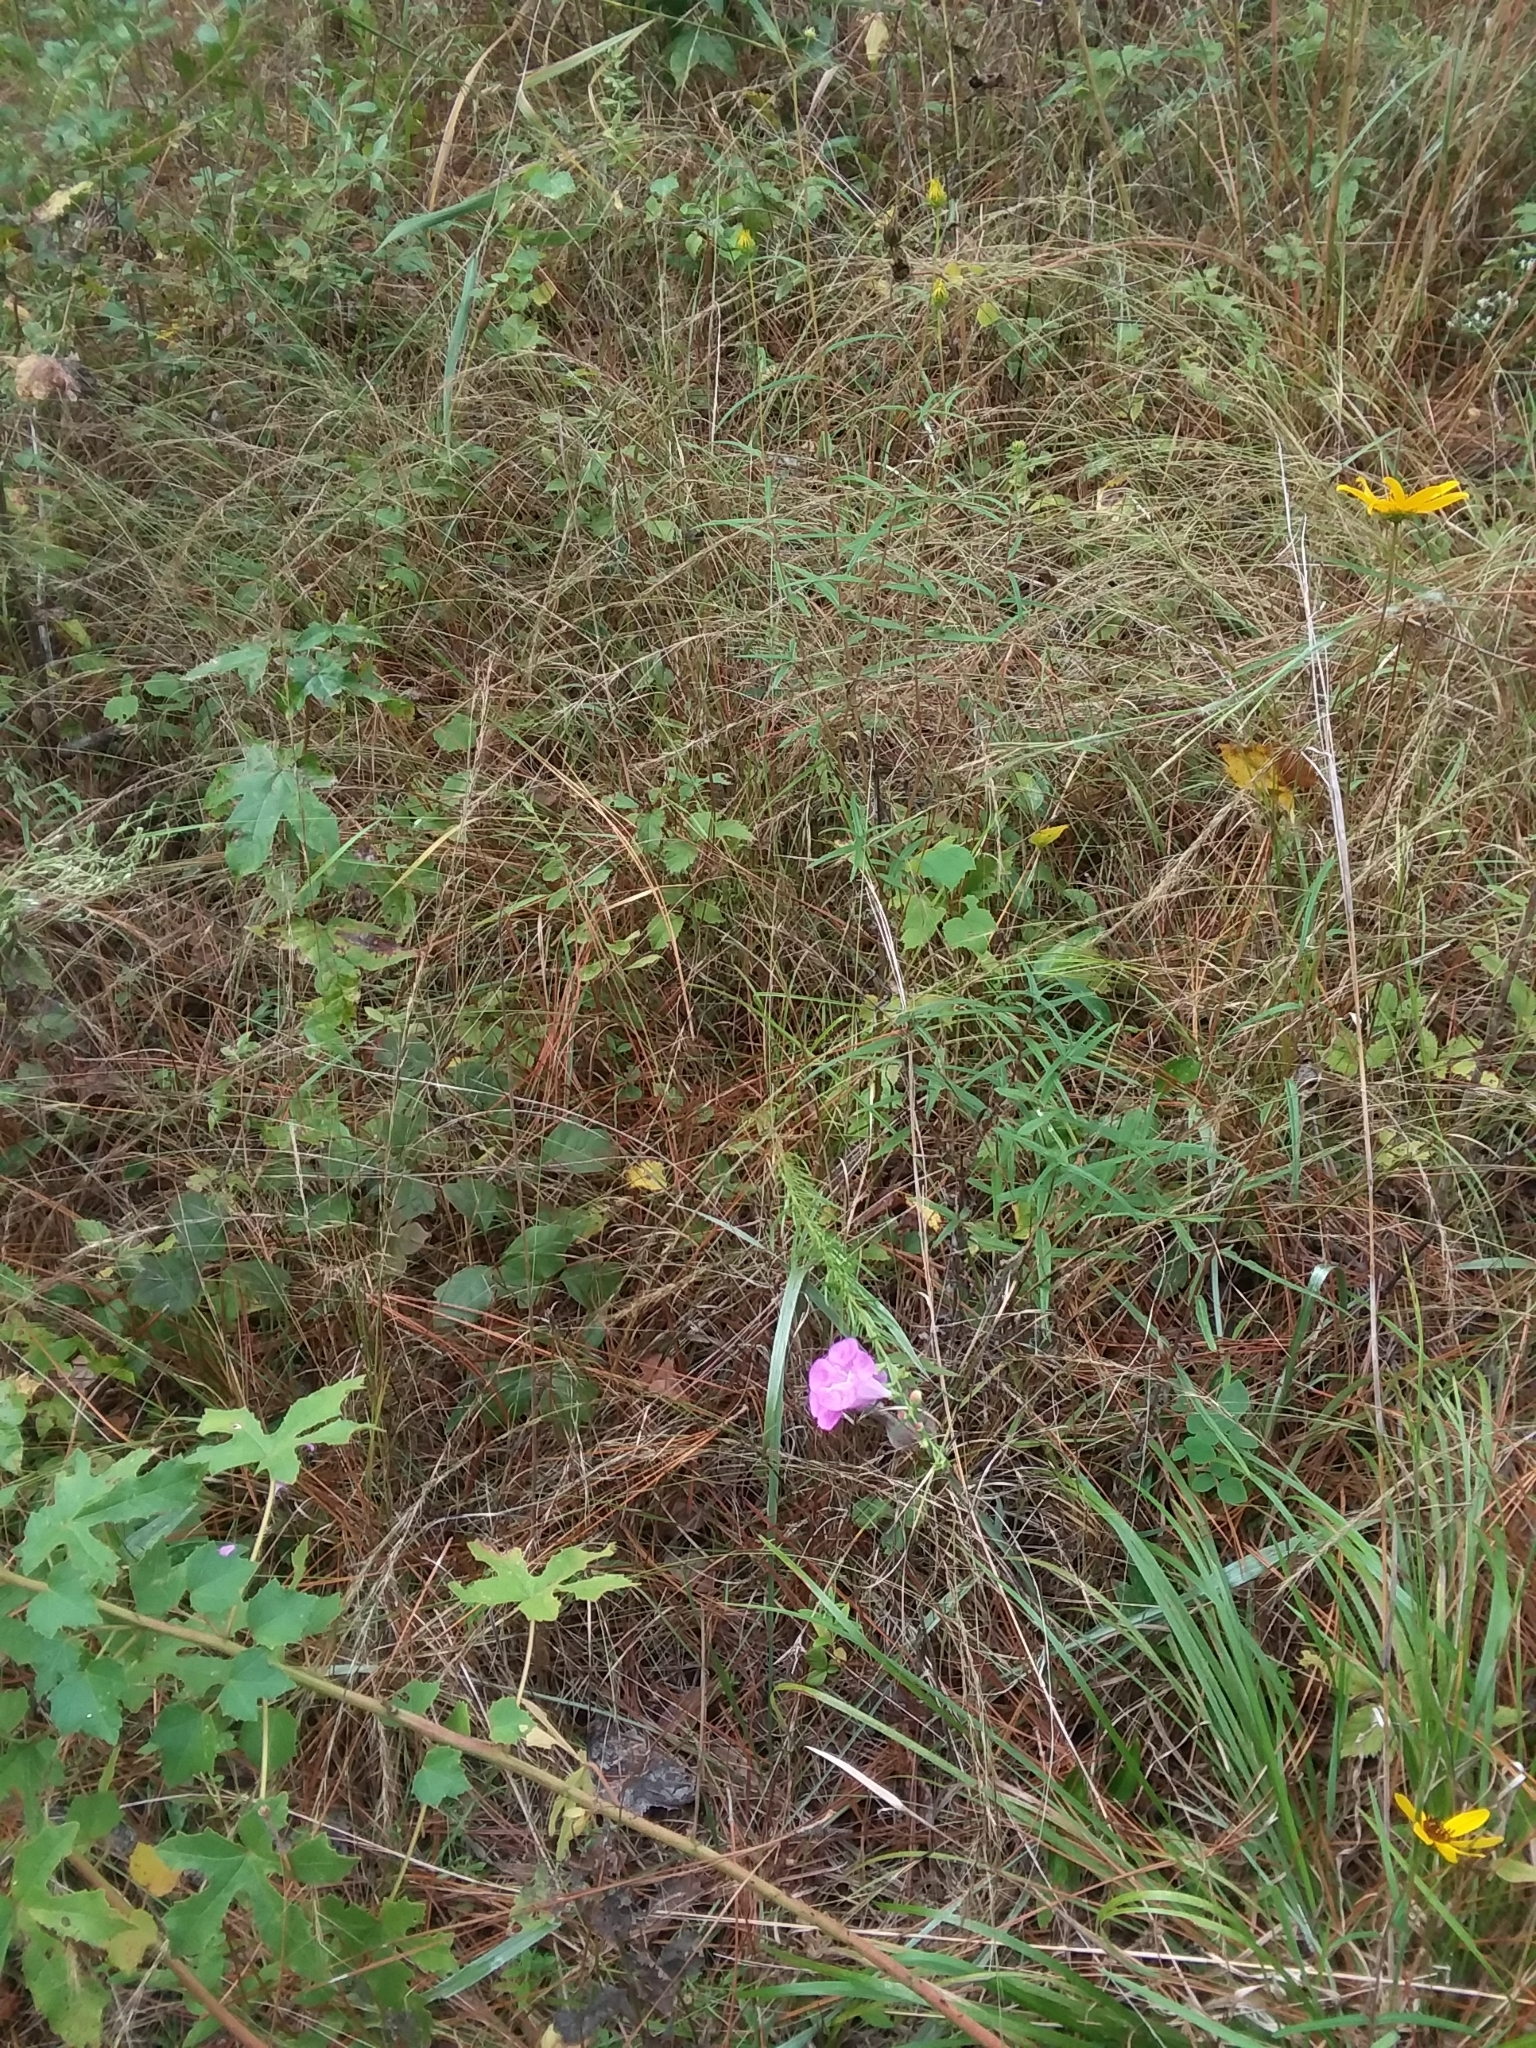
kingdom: Plantae
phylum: Tracheophyta
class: Magnoliopsida
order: Lamiales
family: Orobanchaceae
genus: Agalinis
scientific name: Agalinis fasciculata
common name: Beach false foxglove
